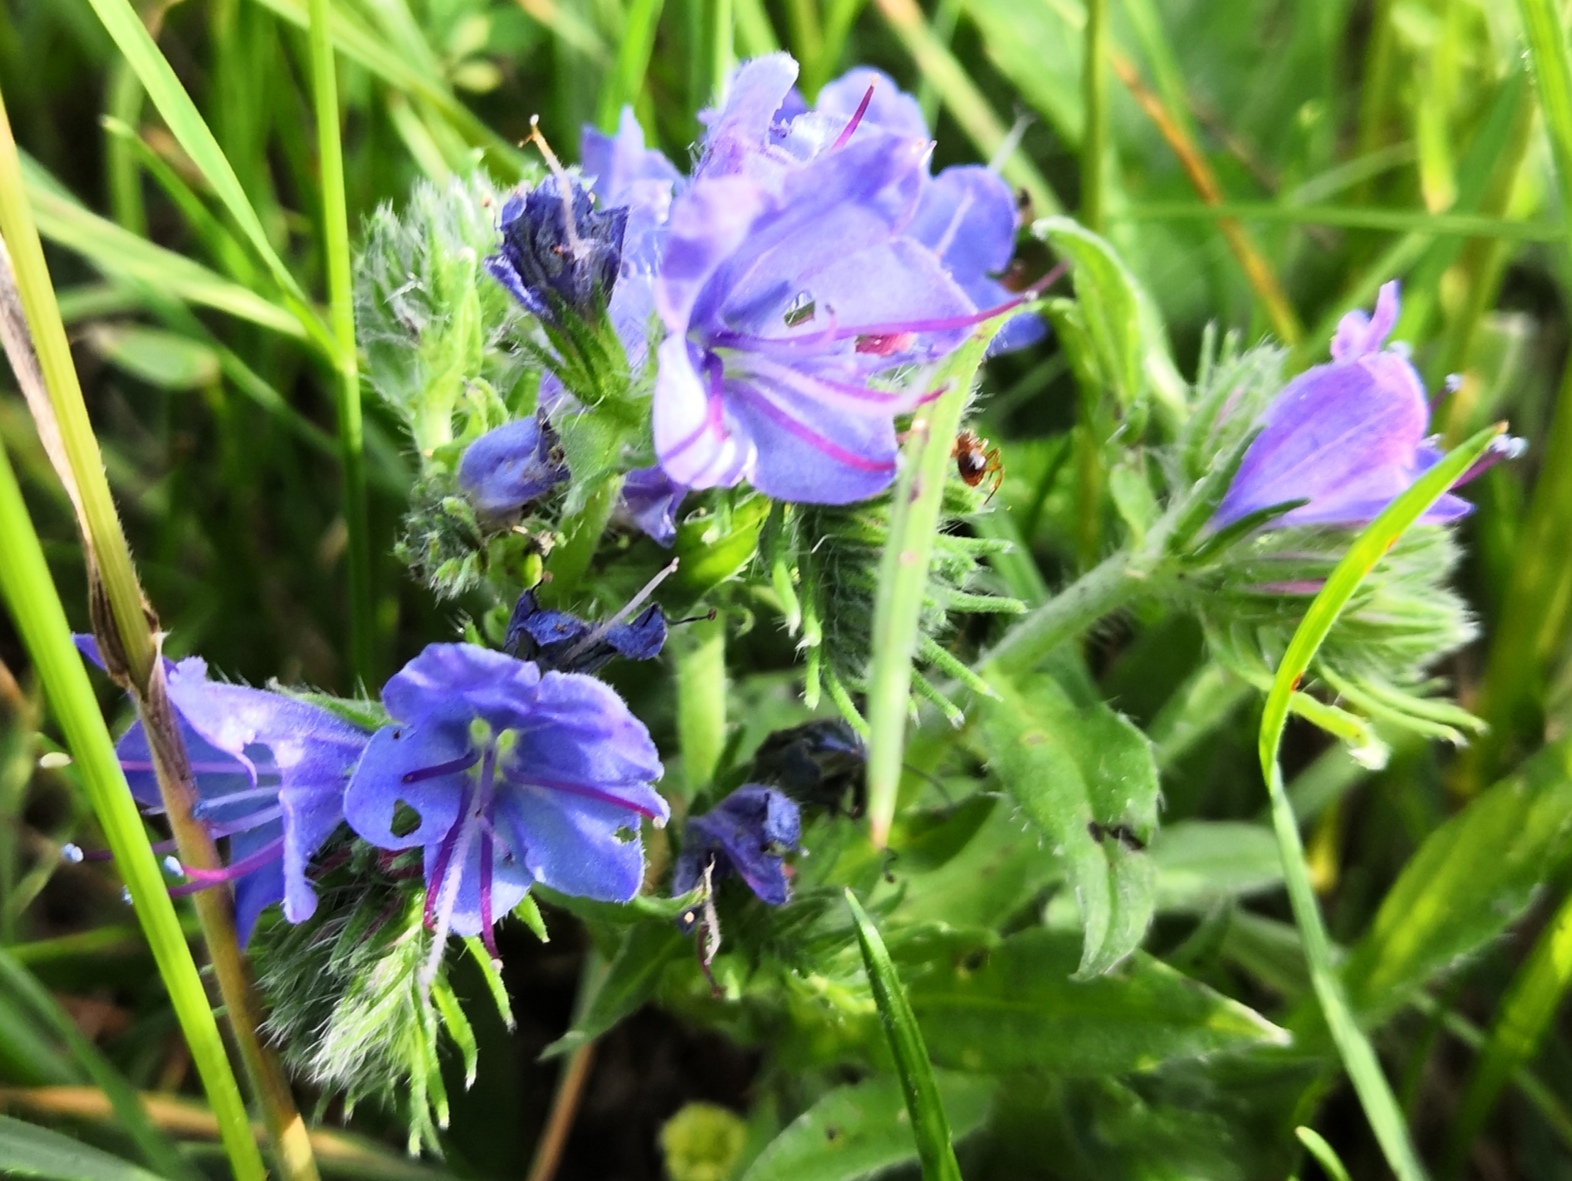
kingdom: Plantae
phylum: Tracheophyta
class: Magnoliopsida
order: Boraginales
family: Boraginaceae
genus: Echium
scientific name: Echium vulgare
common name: Common viper's bugloss
